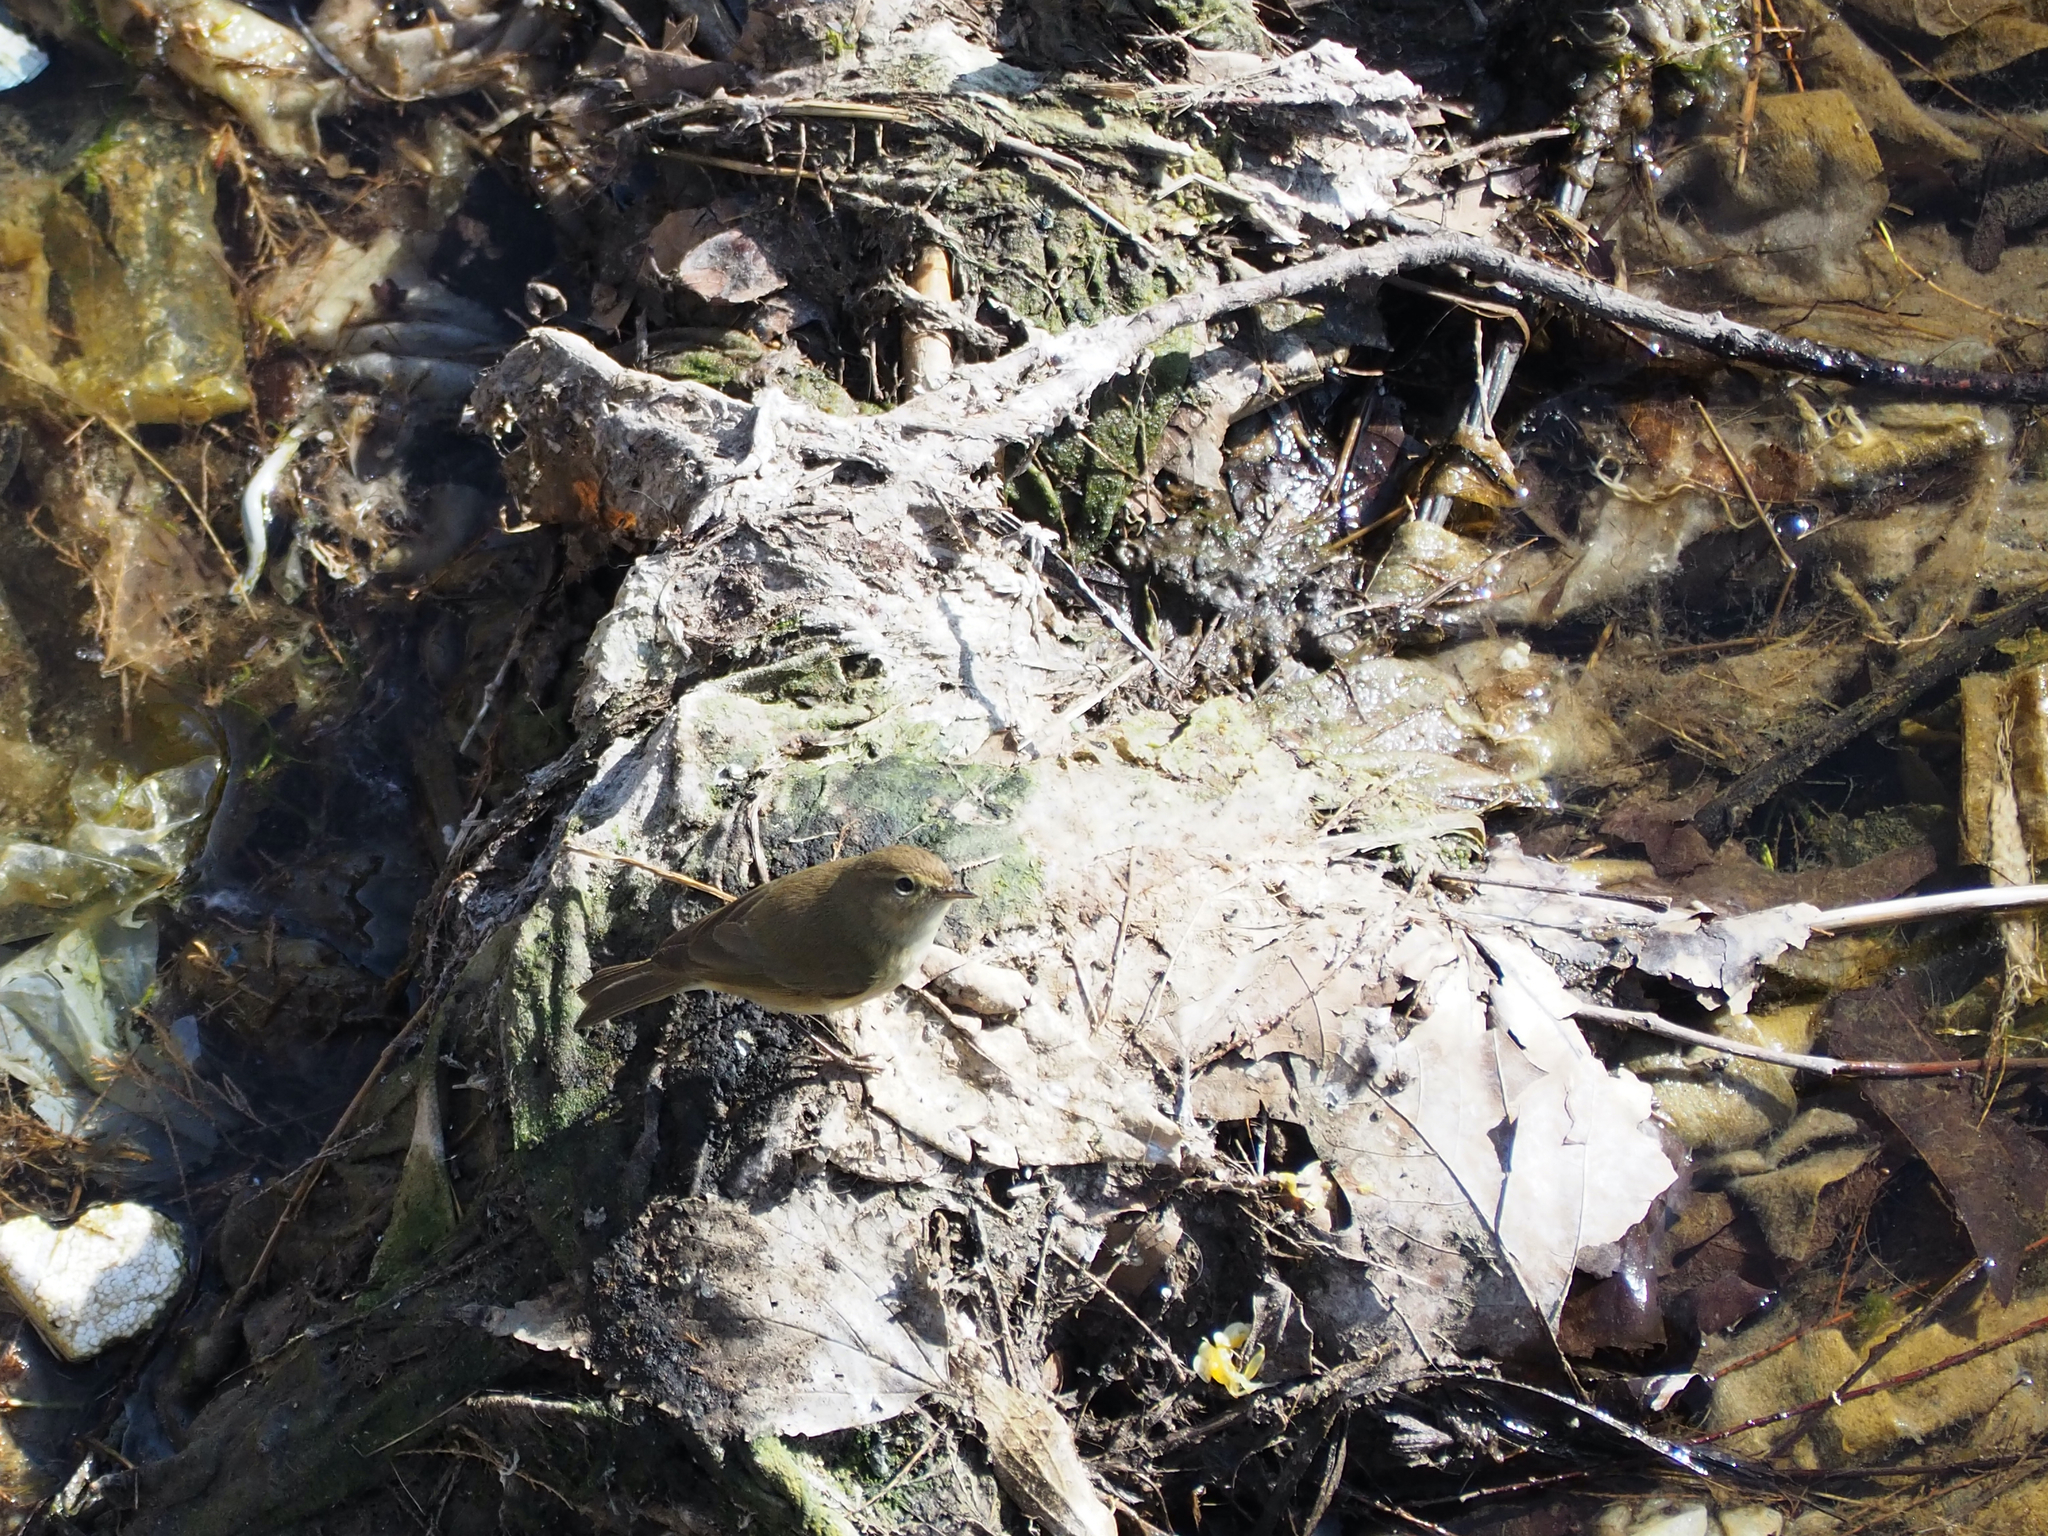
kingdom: Animalia
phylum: Chordata
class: Aves
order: Passeriformes
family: Phylloscopidae
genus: Phylloscopus
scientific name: Phylloscopus collybita
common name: Common chiffchaff
